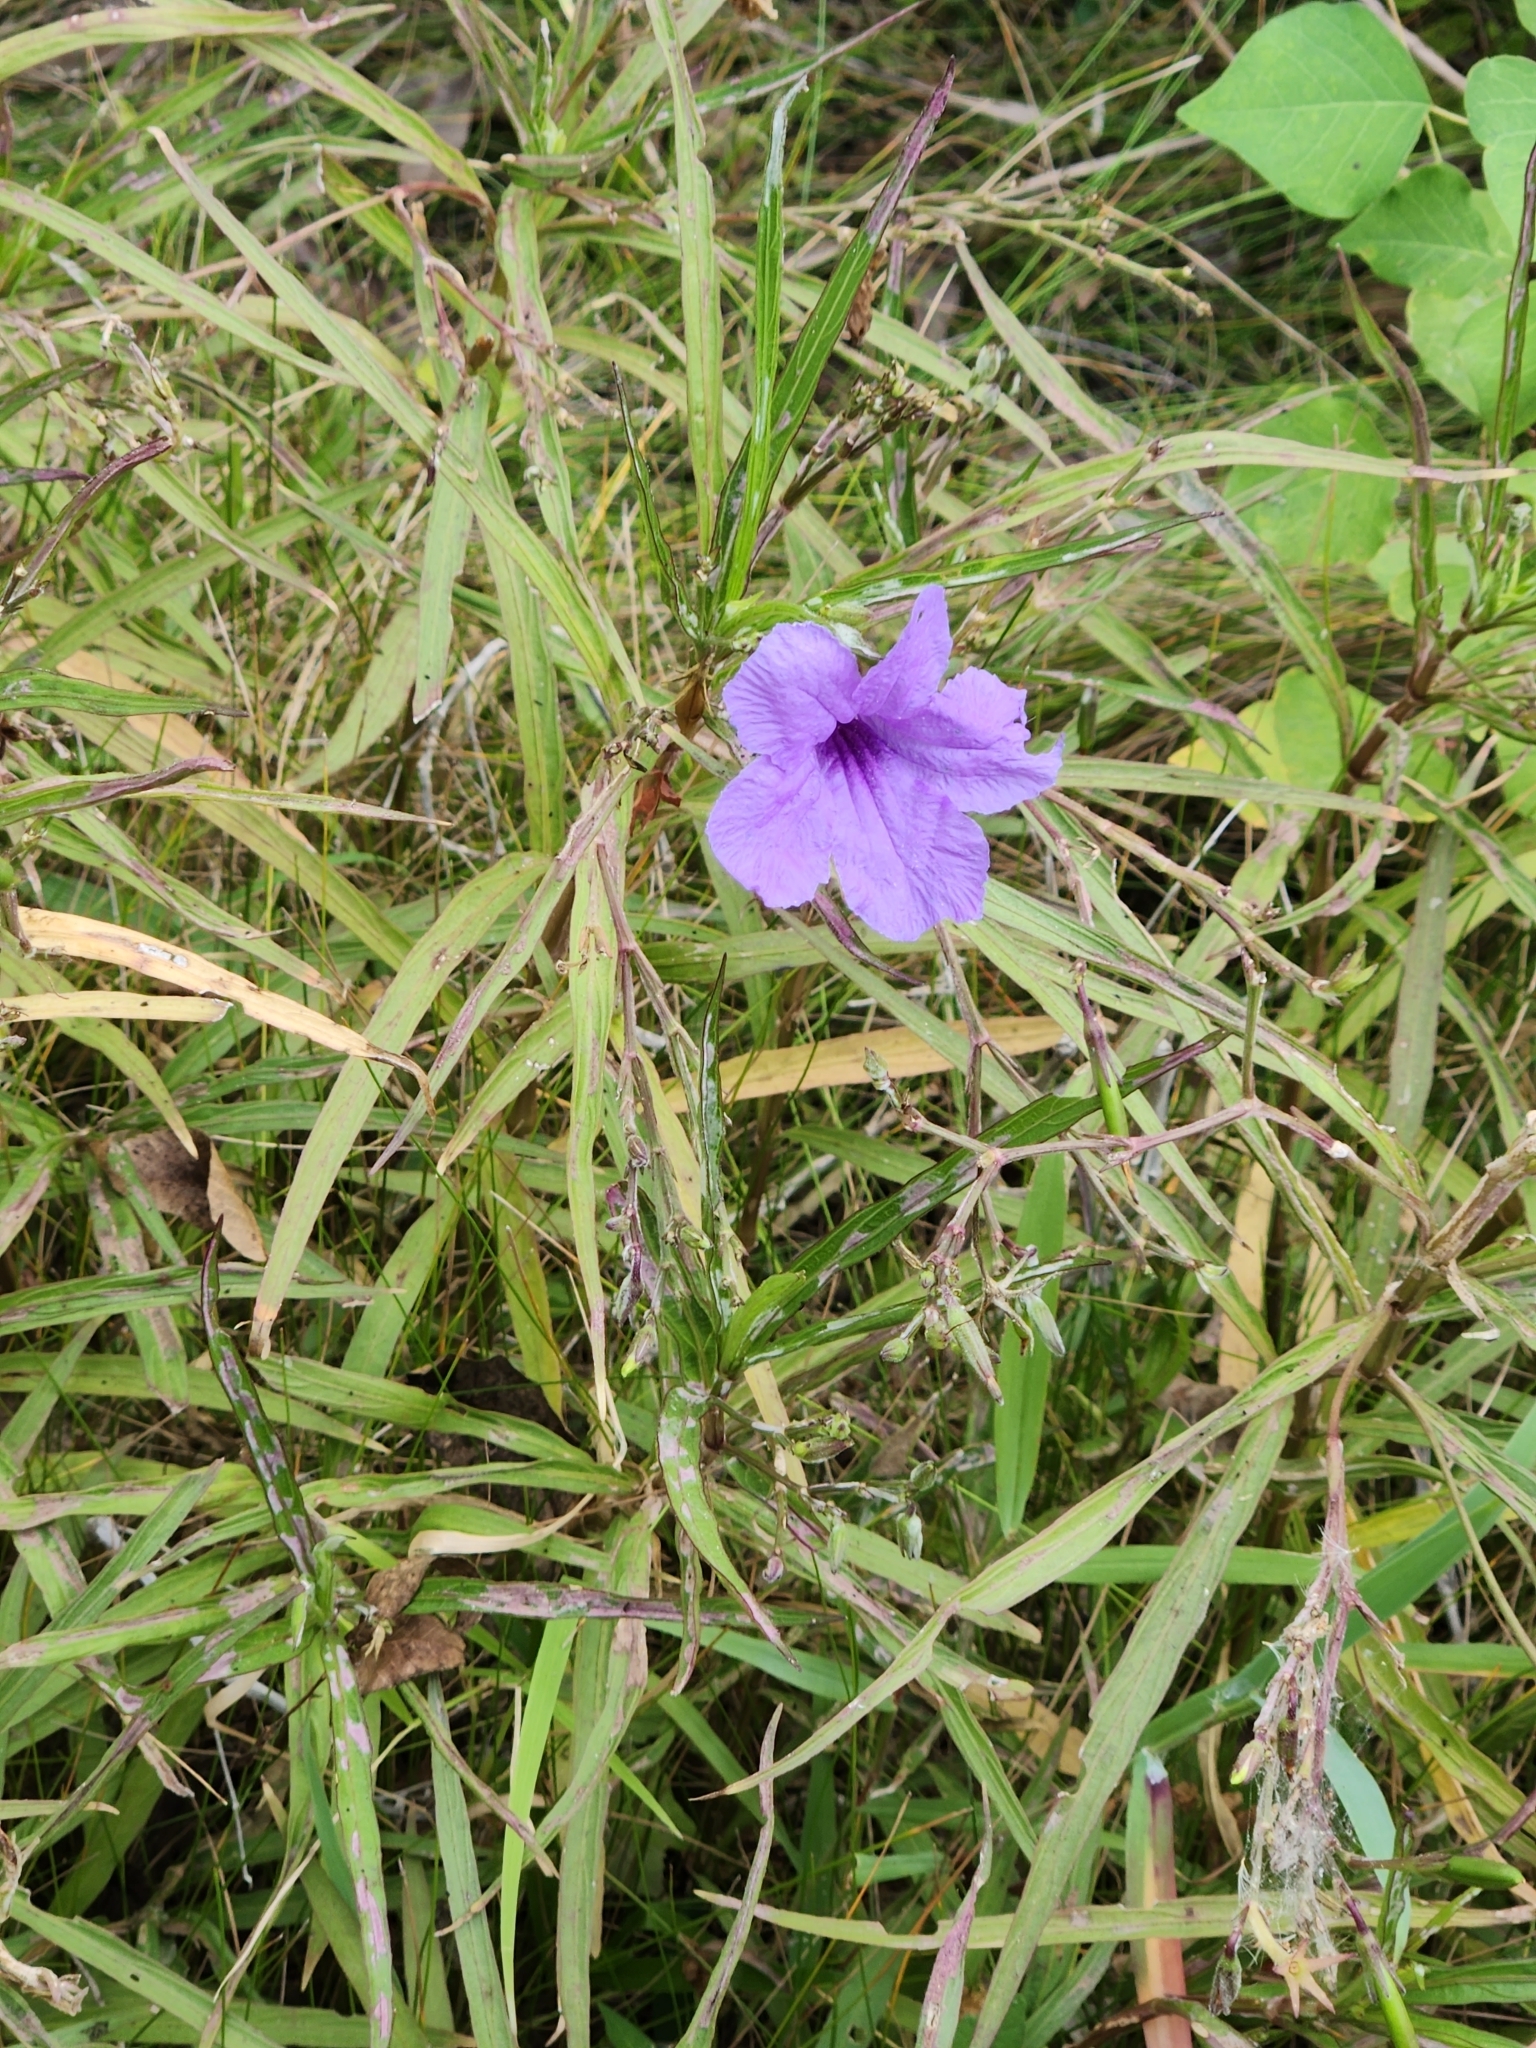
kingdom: Plantae
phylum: Tracheophyta
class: Magnoliopsida
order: Lamiales
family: Acanthaceae
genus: Ruellia
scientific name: Ruellia simplex
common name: Softseed wild petunia
